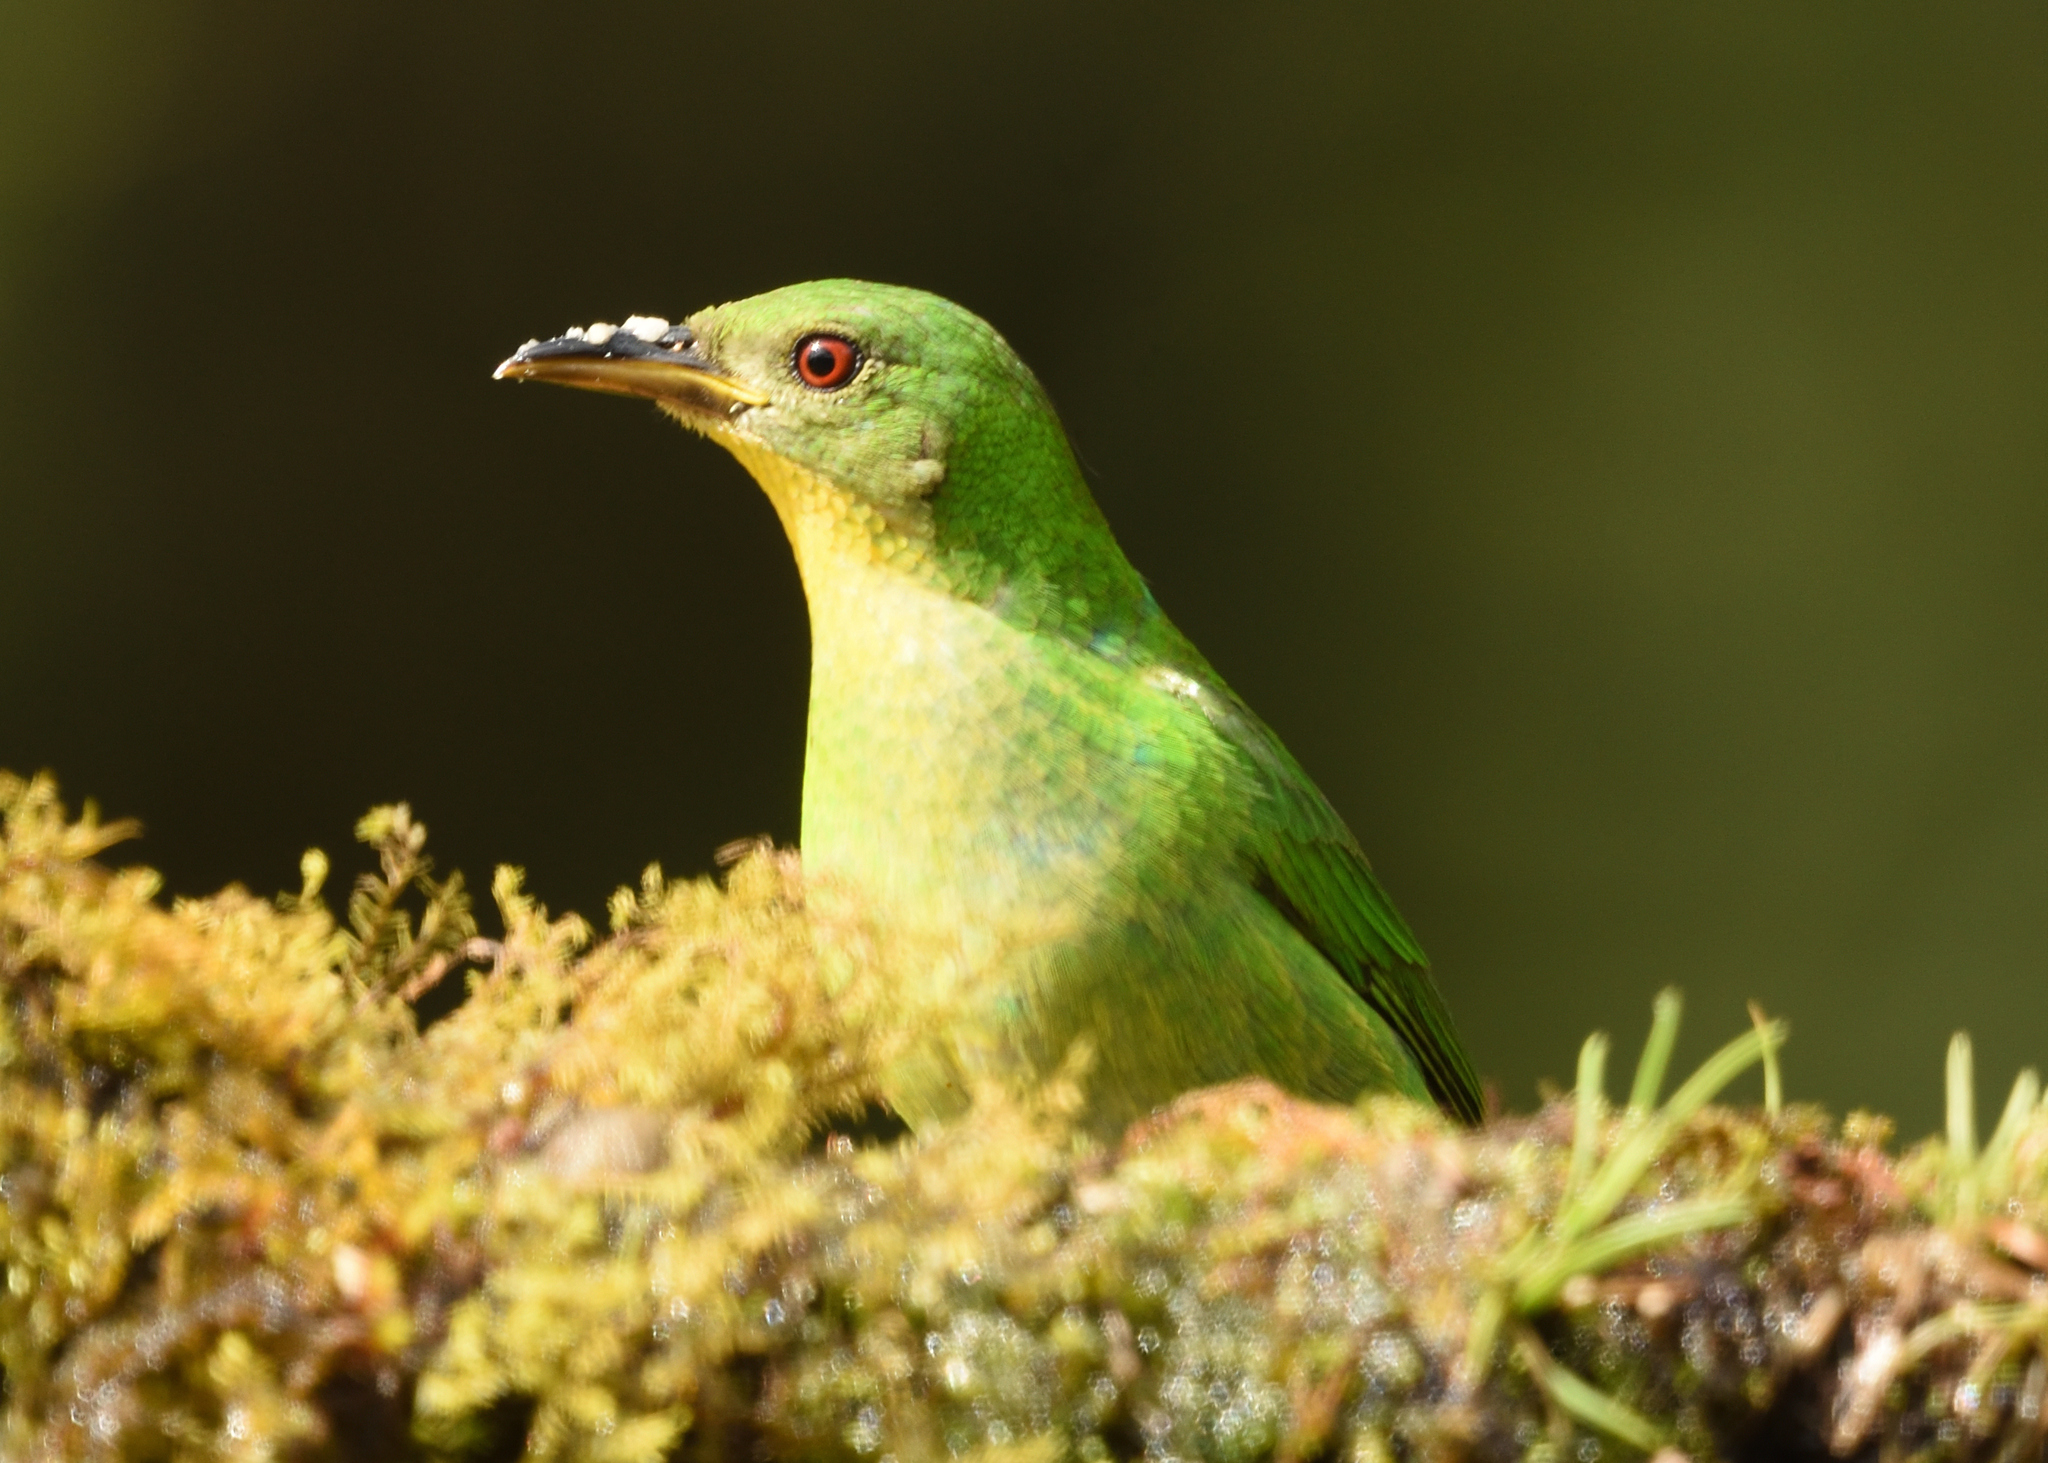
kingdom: Animalia
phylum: Chordata
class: Aves
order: Passeriformes
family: Thraupidae
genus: Chlorophanes
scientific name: Chlorophanes spiza
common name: Green honeycreeper
